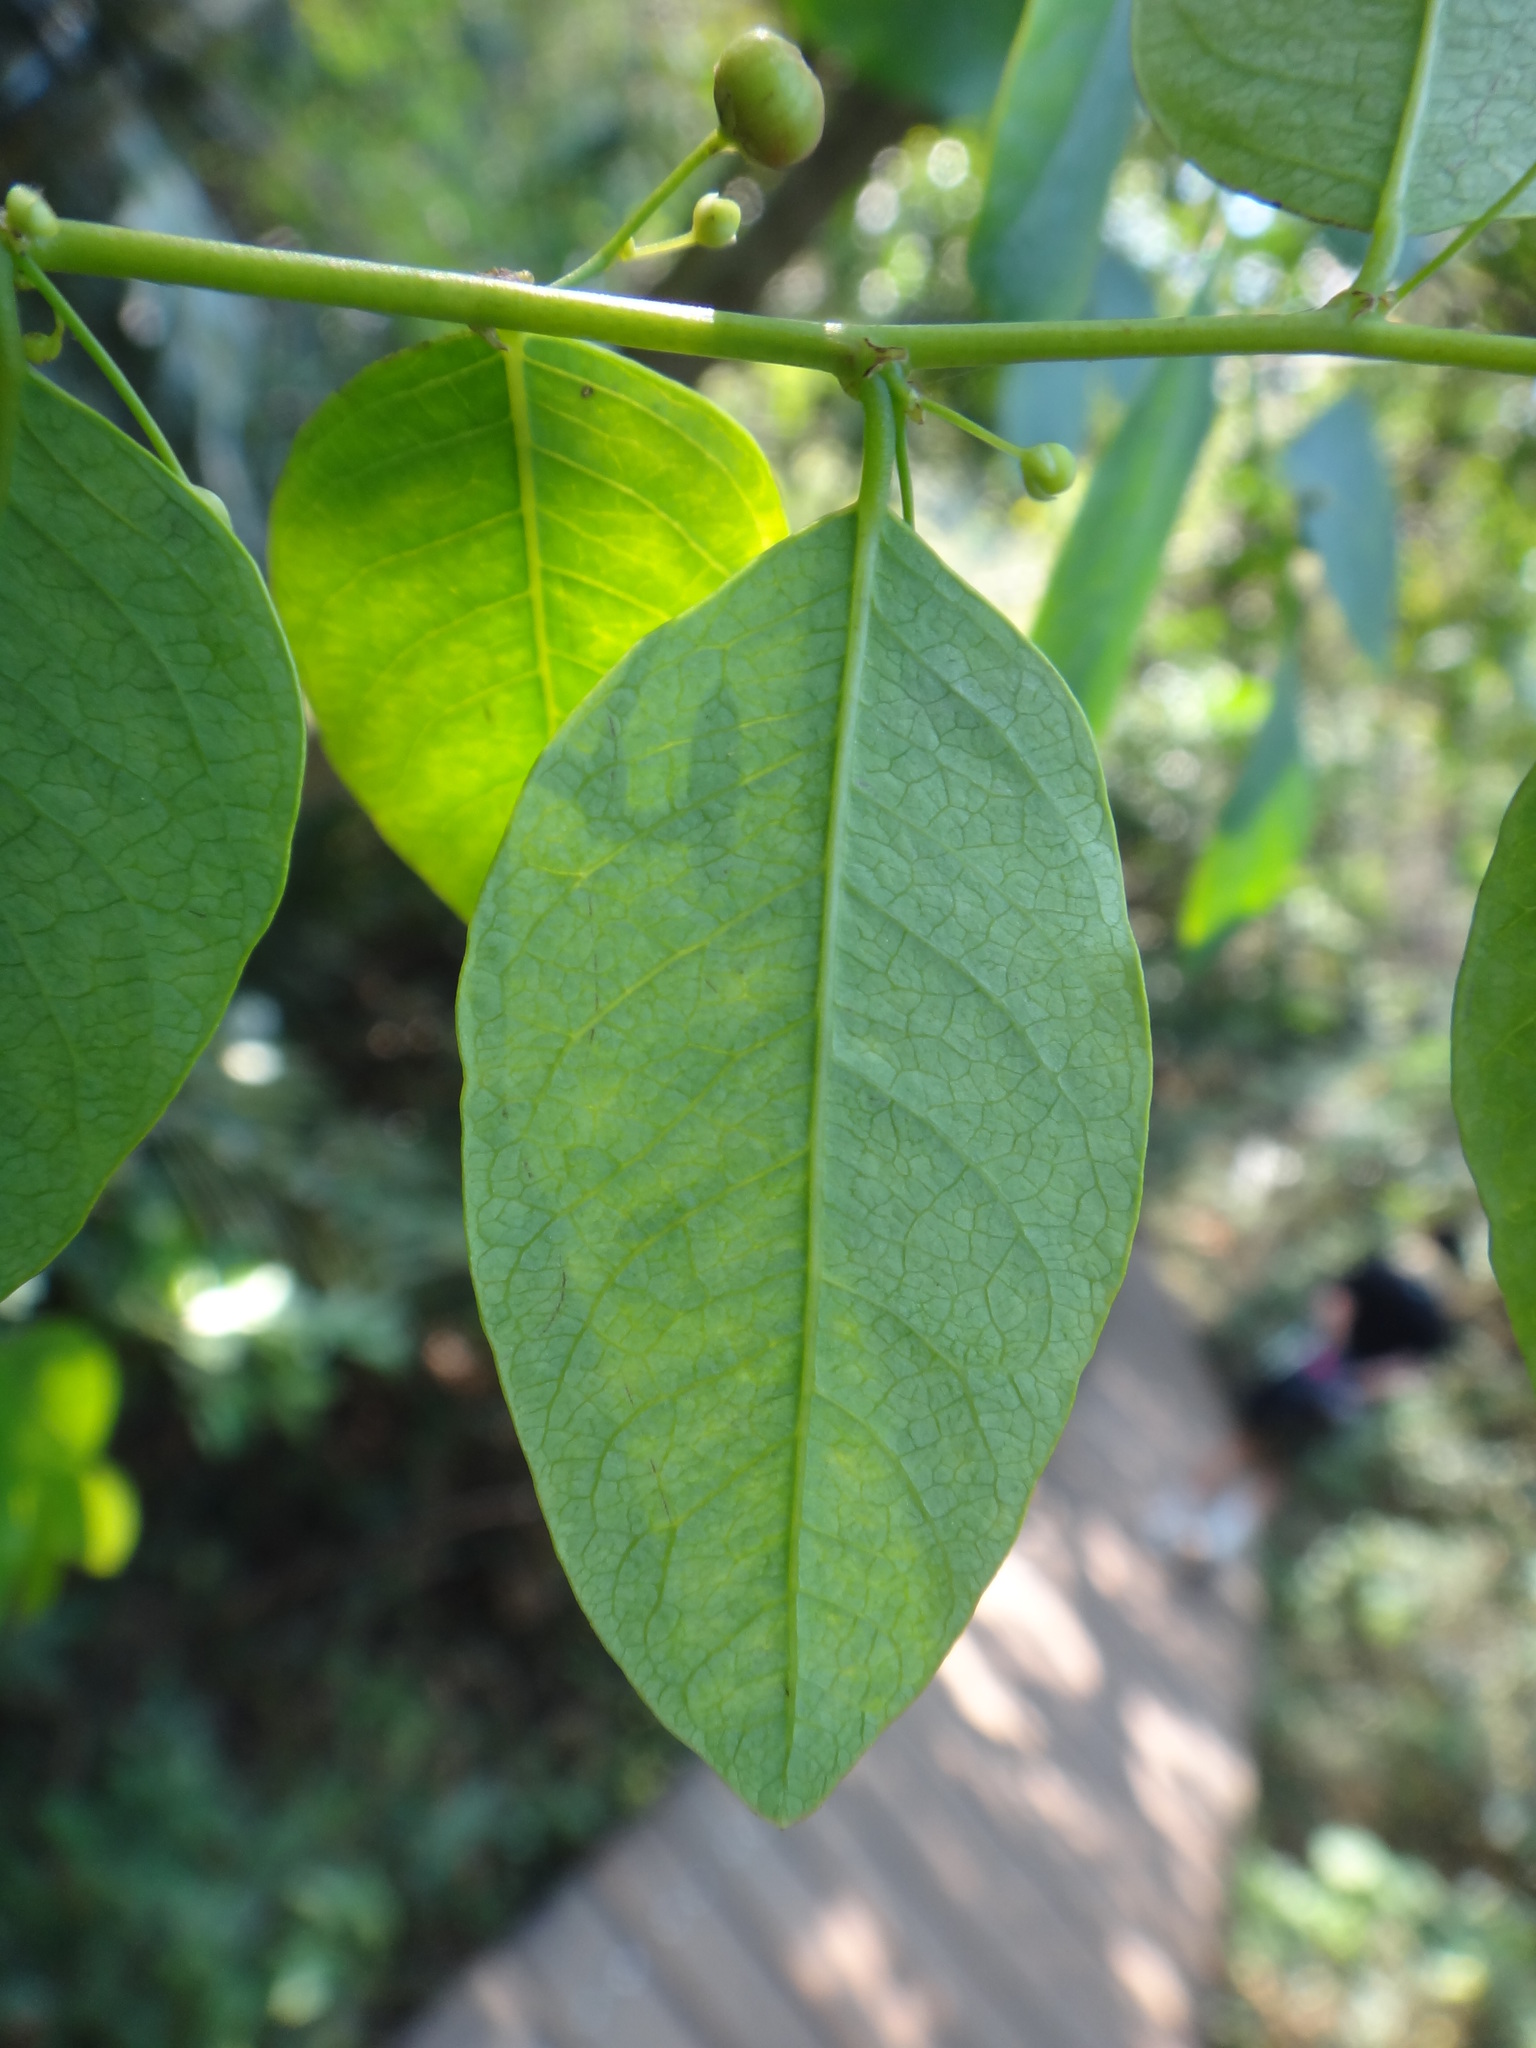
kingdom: Plantae
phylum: Tracheophyta
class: Magnoliopsida
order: Malpighiales
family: Phyllanthaceae
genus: Phyllanthus
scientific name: Phyllanthus reticulatus
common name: Potato bush
